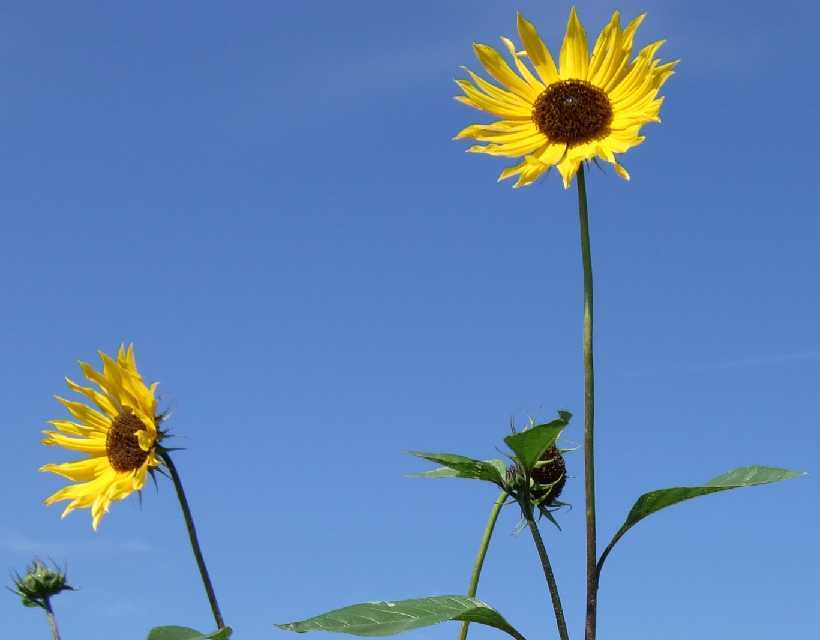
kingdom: Plantae
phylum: Tracheophyta
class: Magnoliopsida
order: Asterales
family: Asteraceae
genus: Helianthus
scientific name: Helianthus annuus
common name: Sunflower
